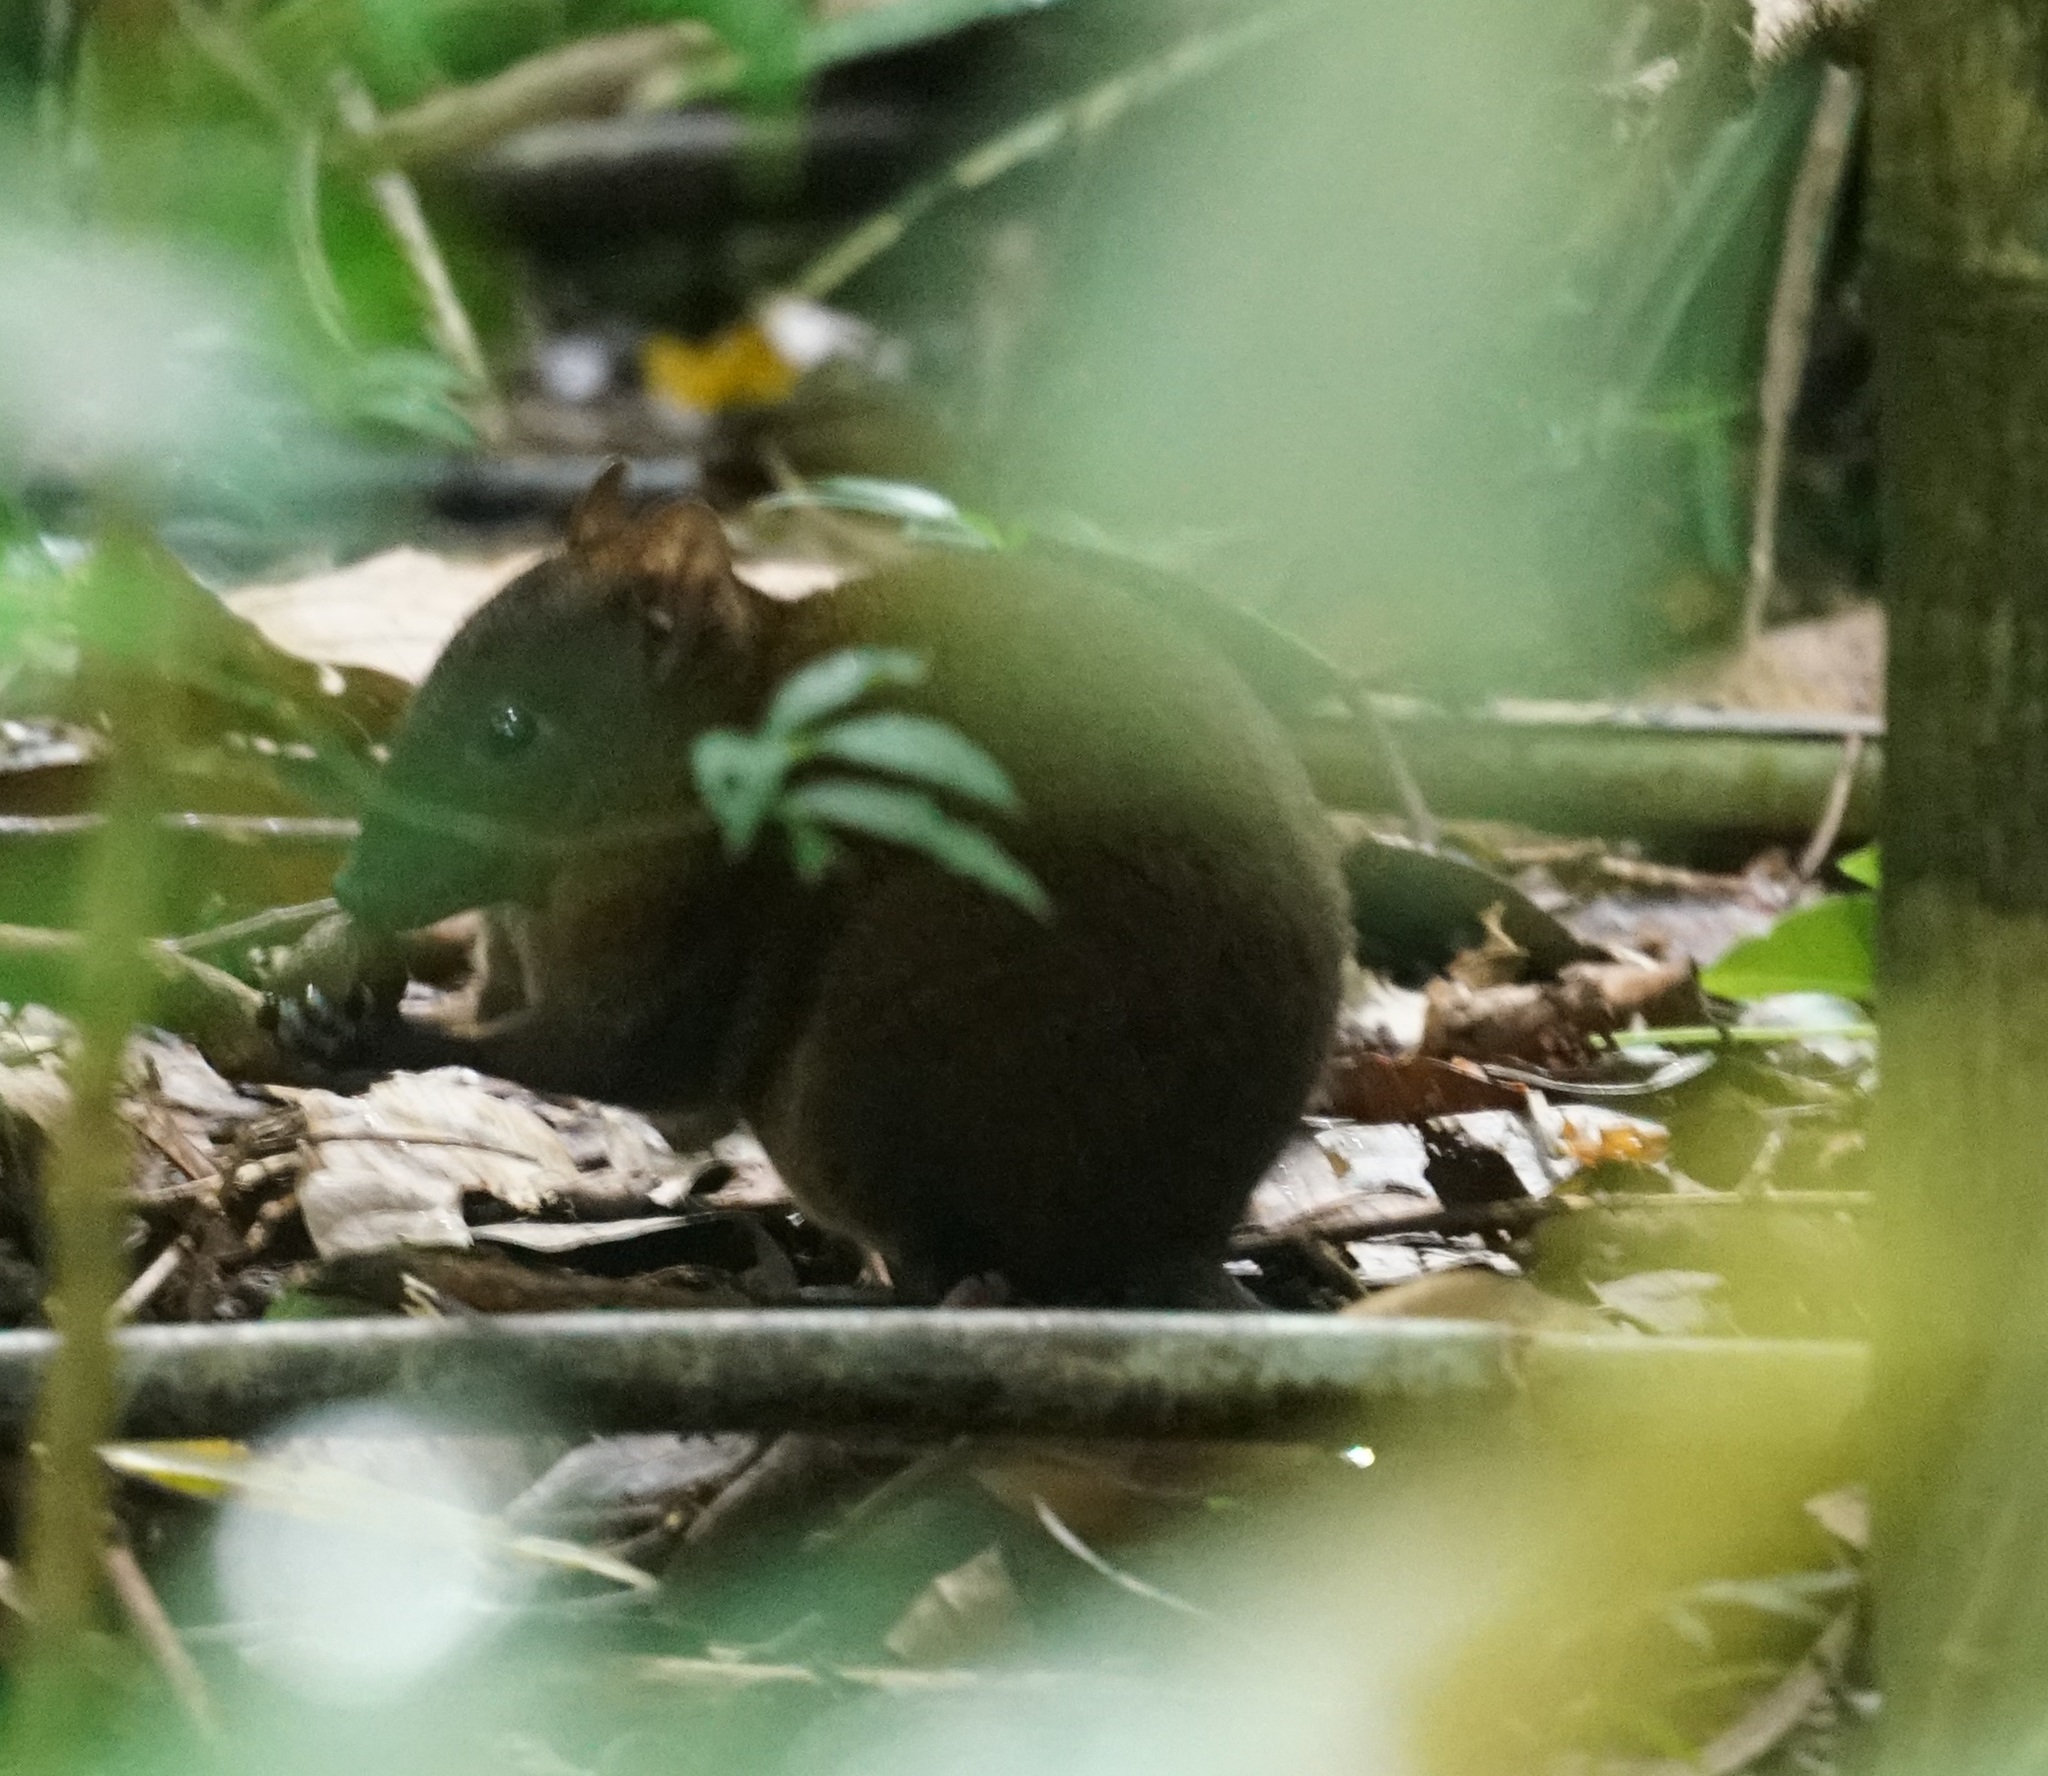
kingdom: Animalia
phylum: Chordata
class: Mammalia
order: Diprotodontia
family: Hypsiprymnodontidae
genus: Hypsiprymnodon
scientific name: Hypsiprymnodon moschatus
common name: Musky rat-kangaroo
